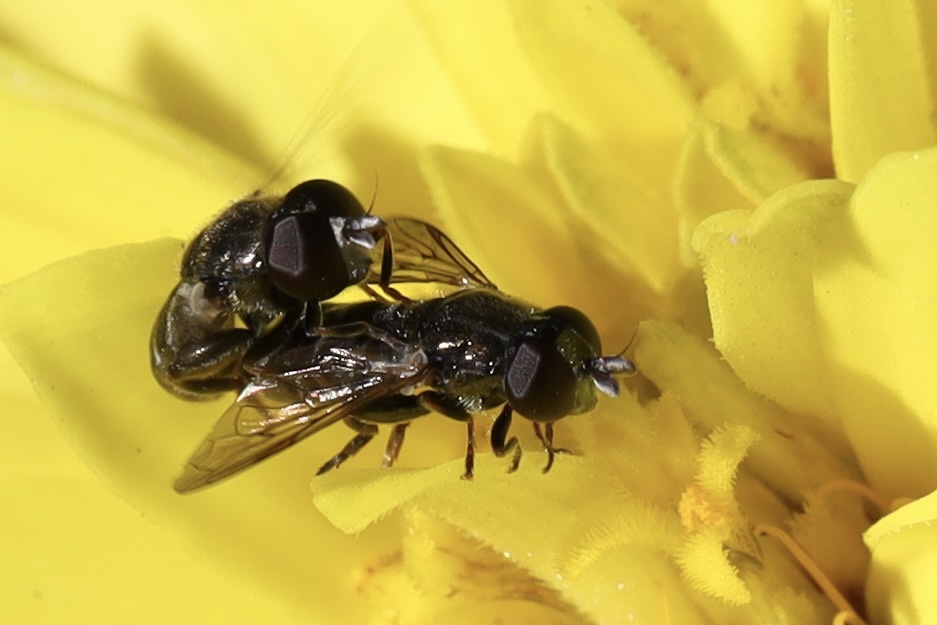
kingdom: Animalia
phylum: Arthropoda
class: Insecta
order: Diptera
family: Syrphidae
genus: Eumerus
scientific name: Eumerus
